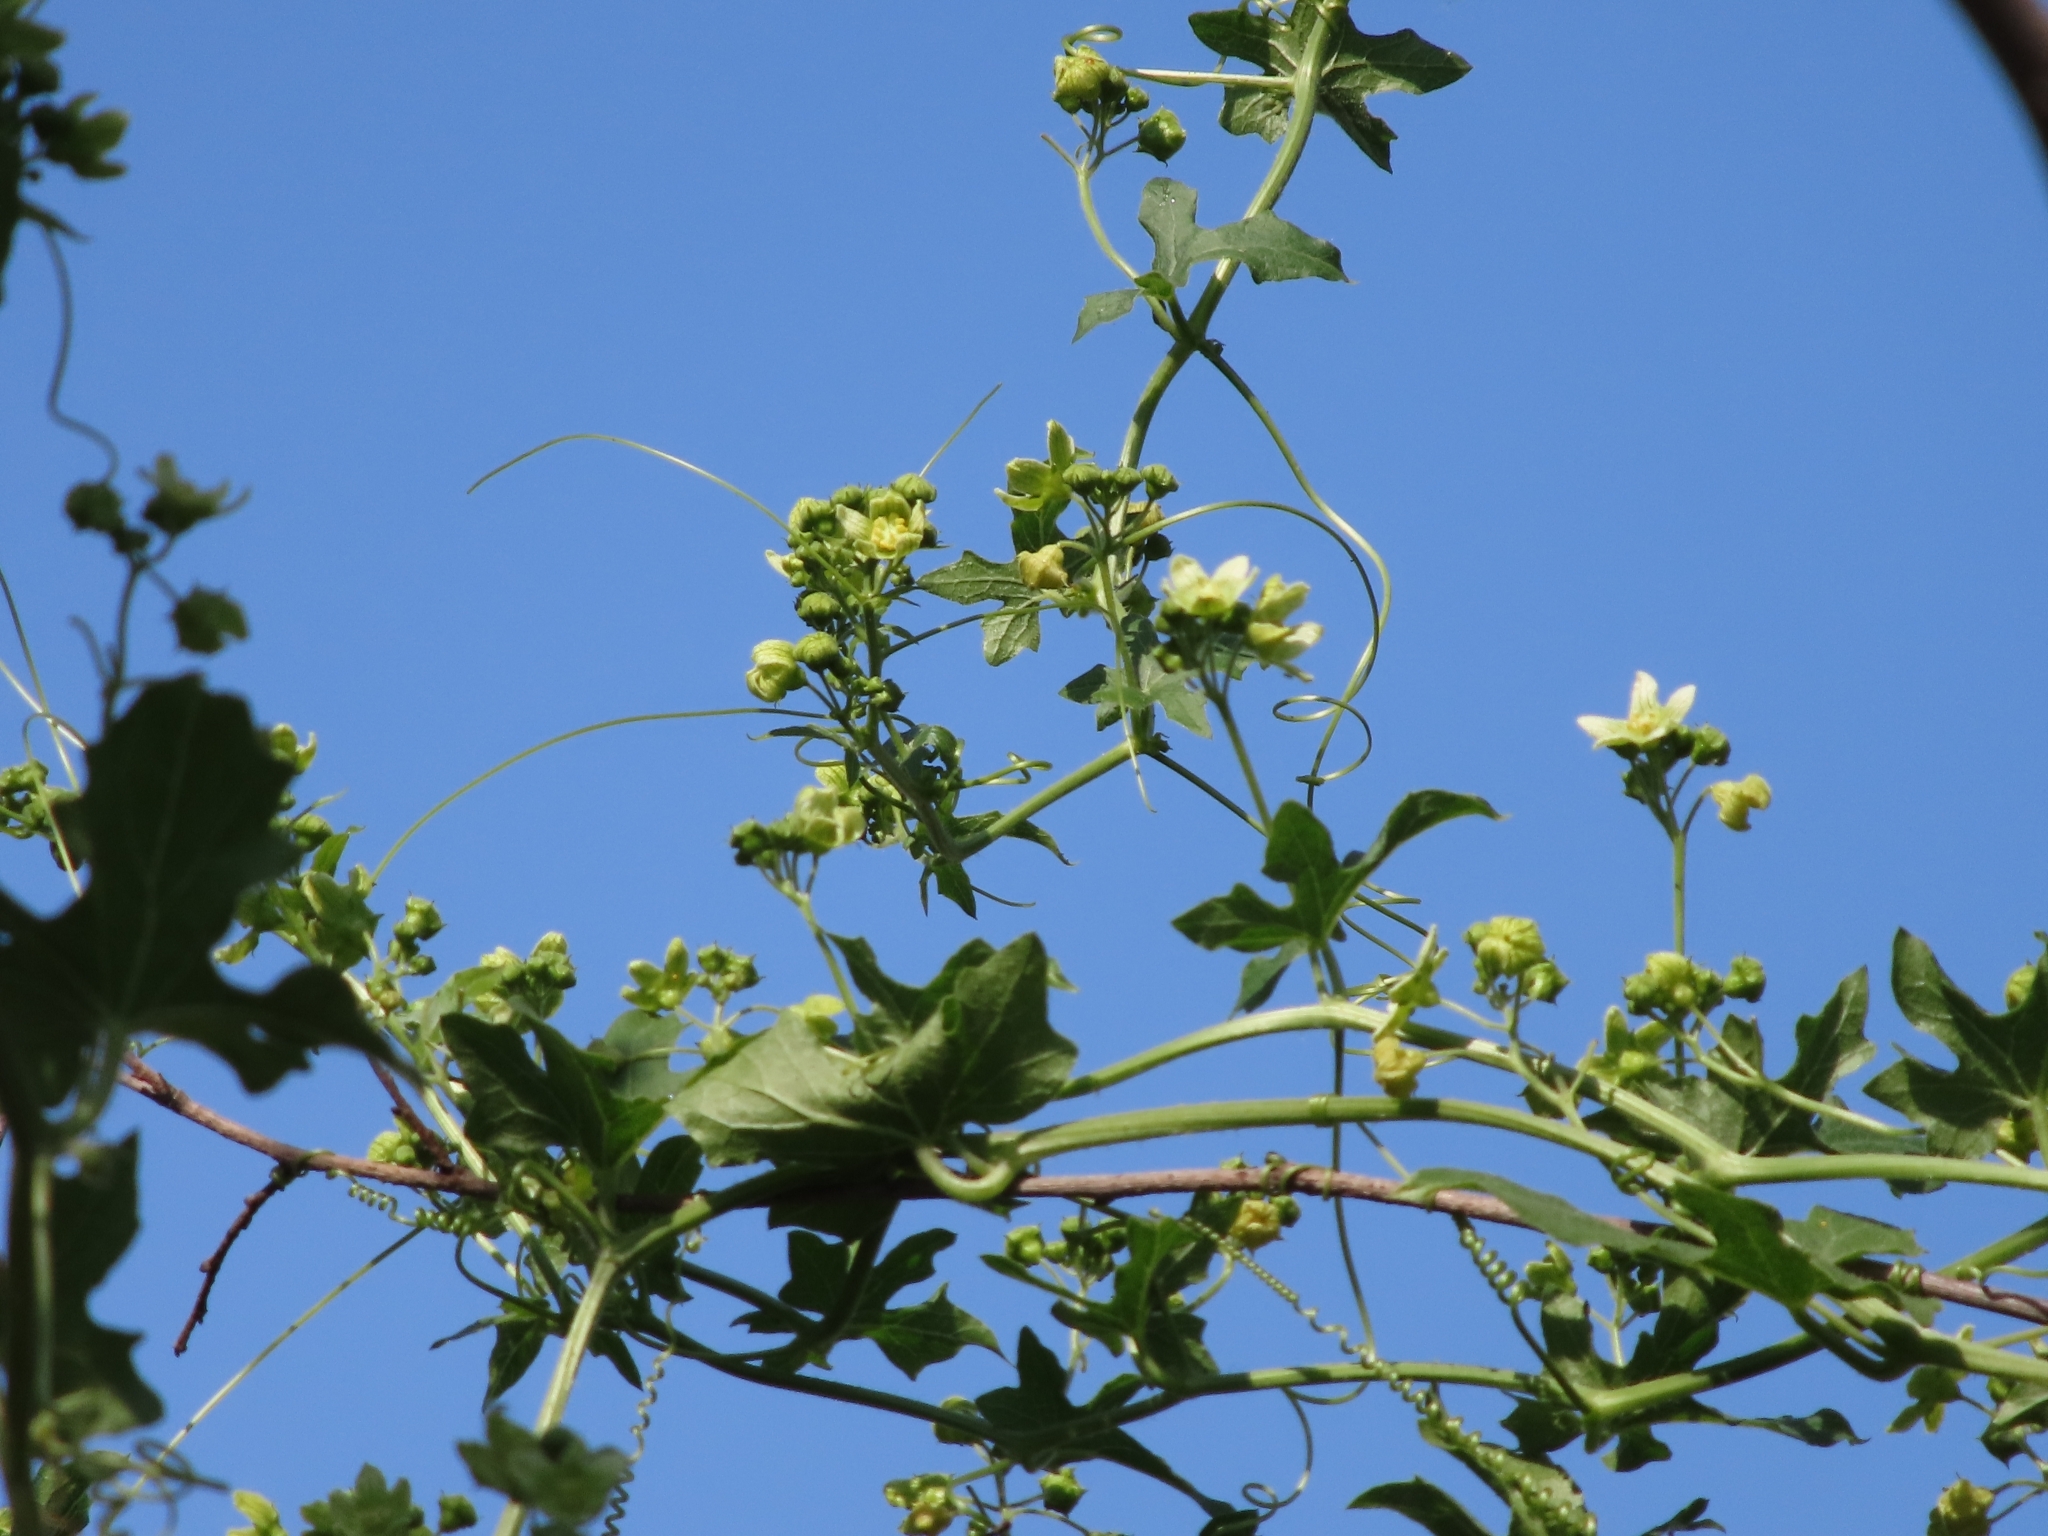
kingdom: Plantae
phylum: Tracheophyta
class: Magnoliopsida
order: Cucurbitales
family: Cucurbitaceae
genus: Bryonia
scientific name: Bryonia cretica
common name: Cretan bryony
